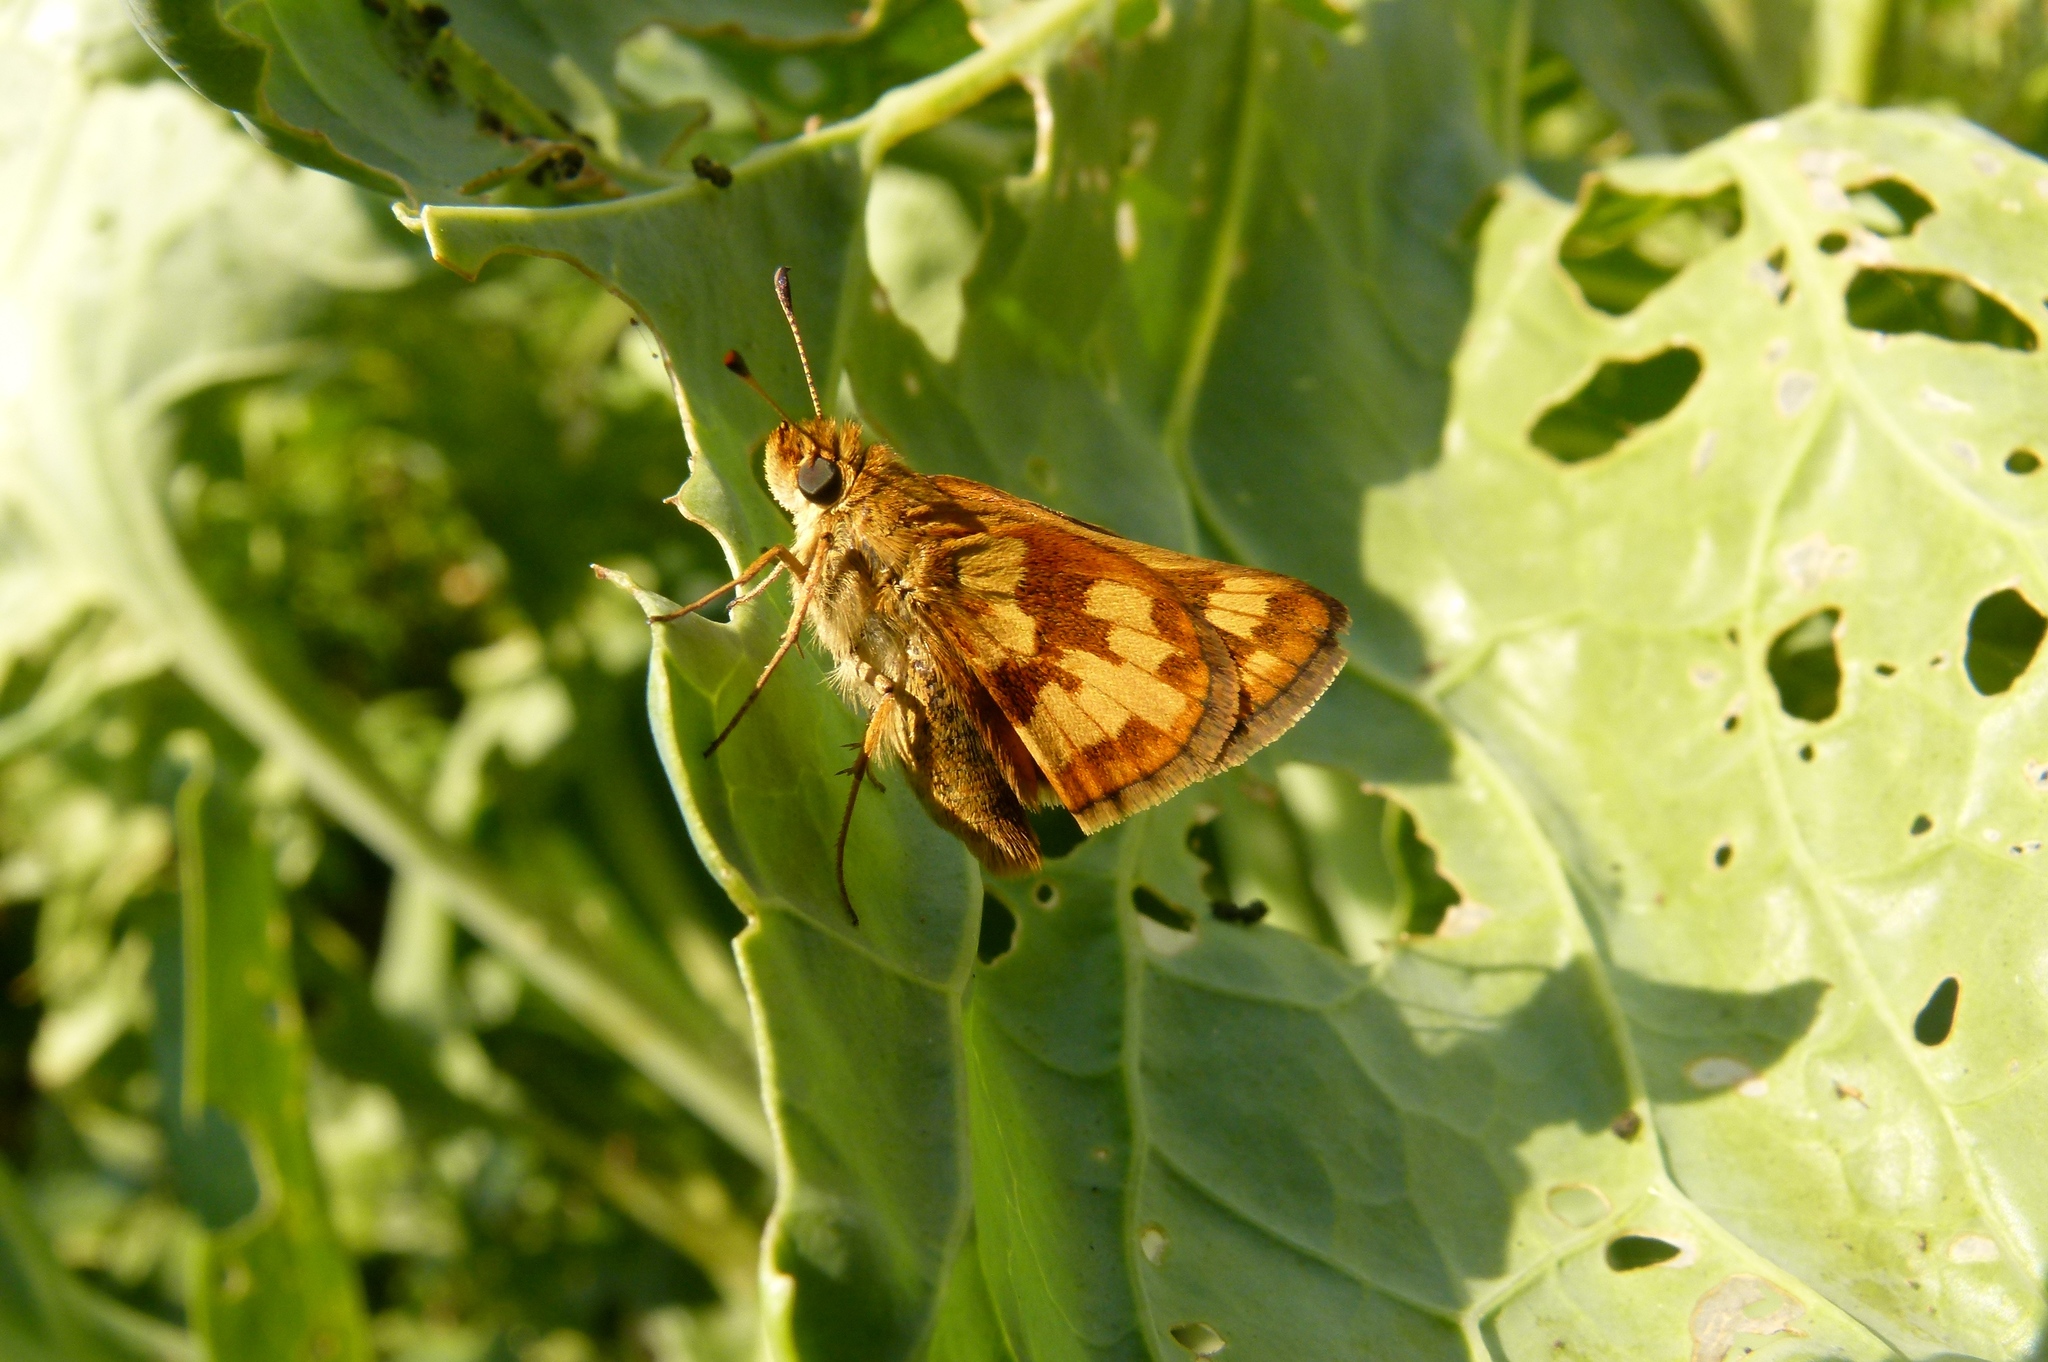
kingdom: Animalia
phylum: Arthropoda
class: Insecta
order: Lepidoptera
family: Hesperiidae
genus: Polites
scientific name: Polites coras
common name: Peck's skipper
